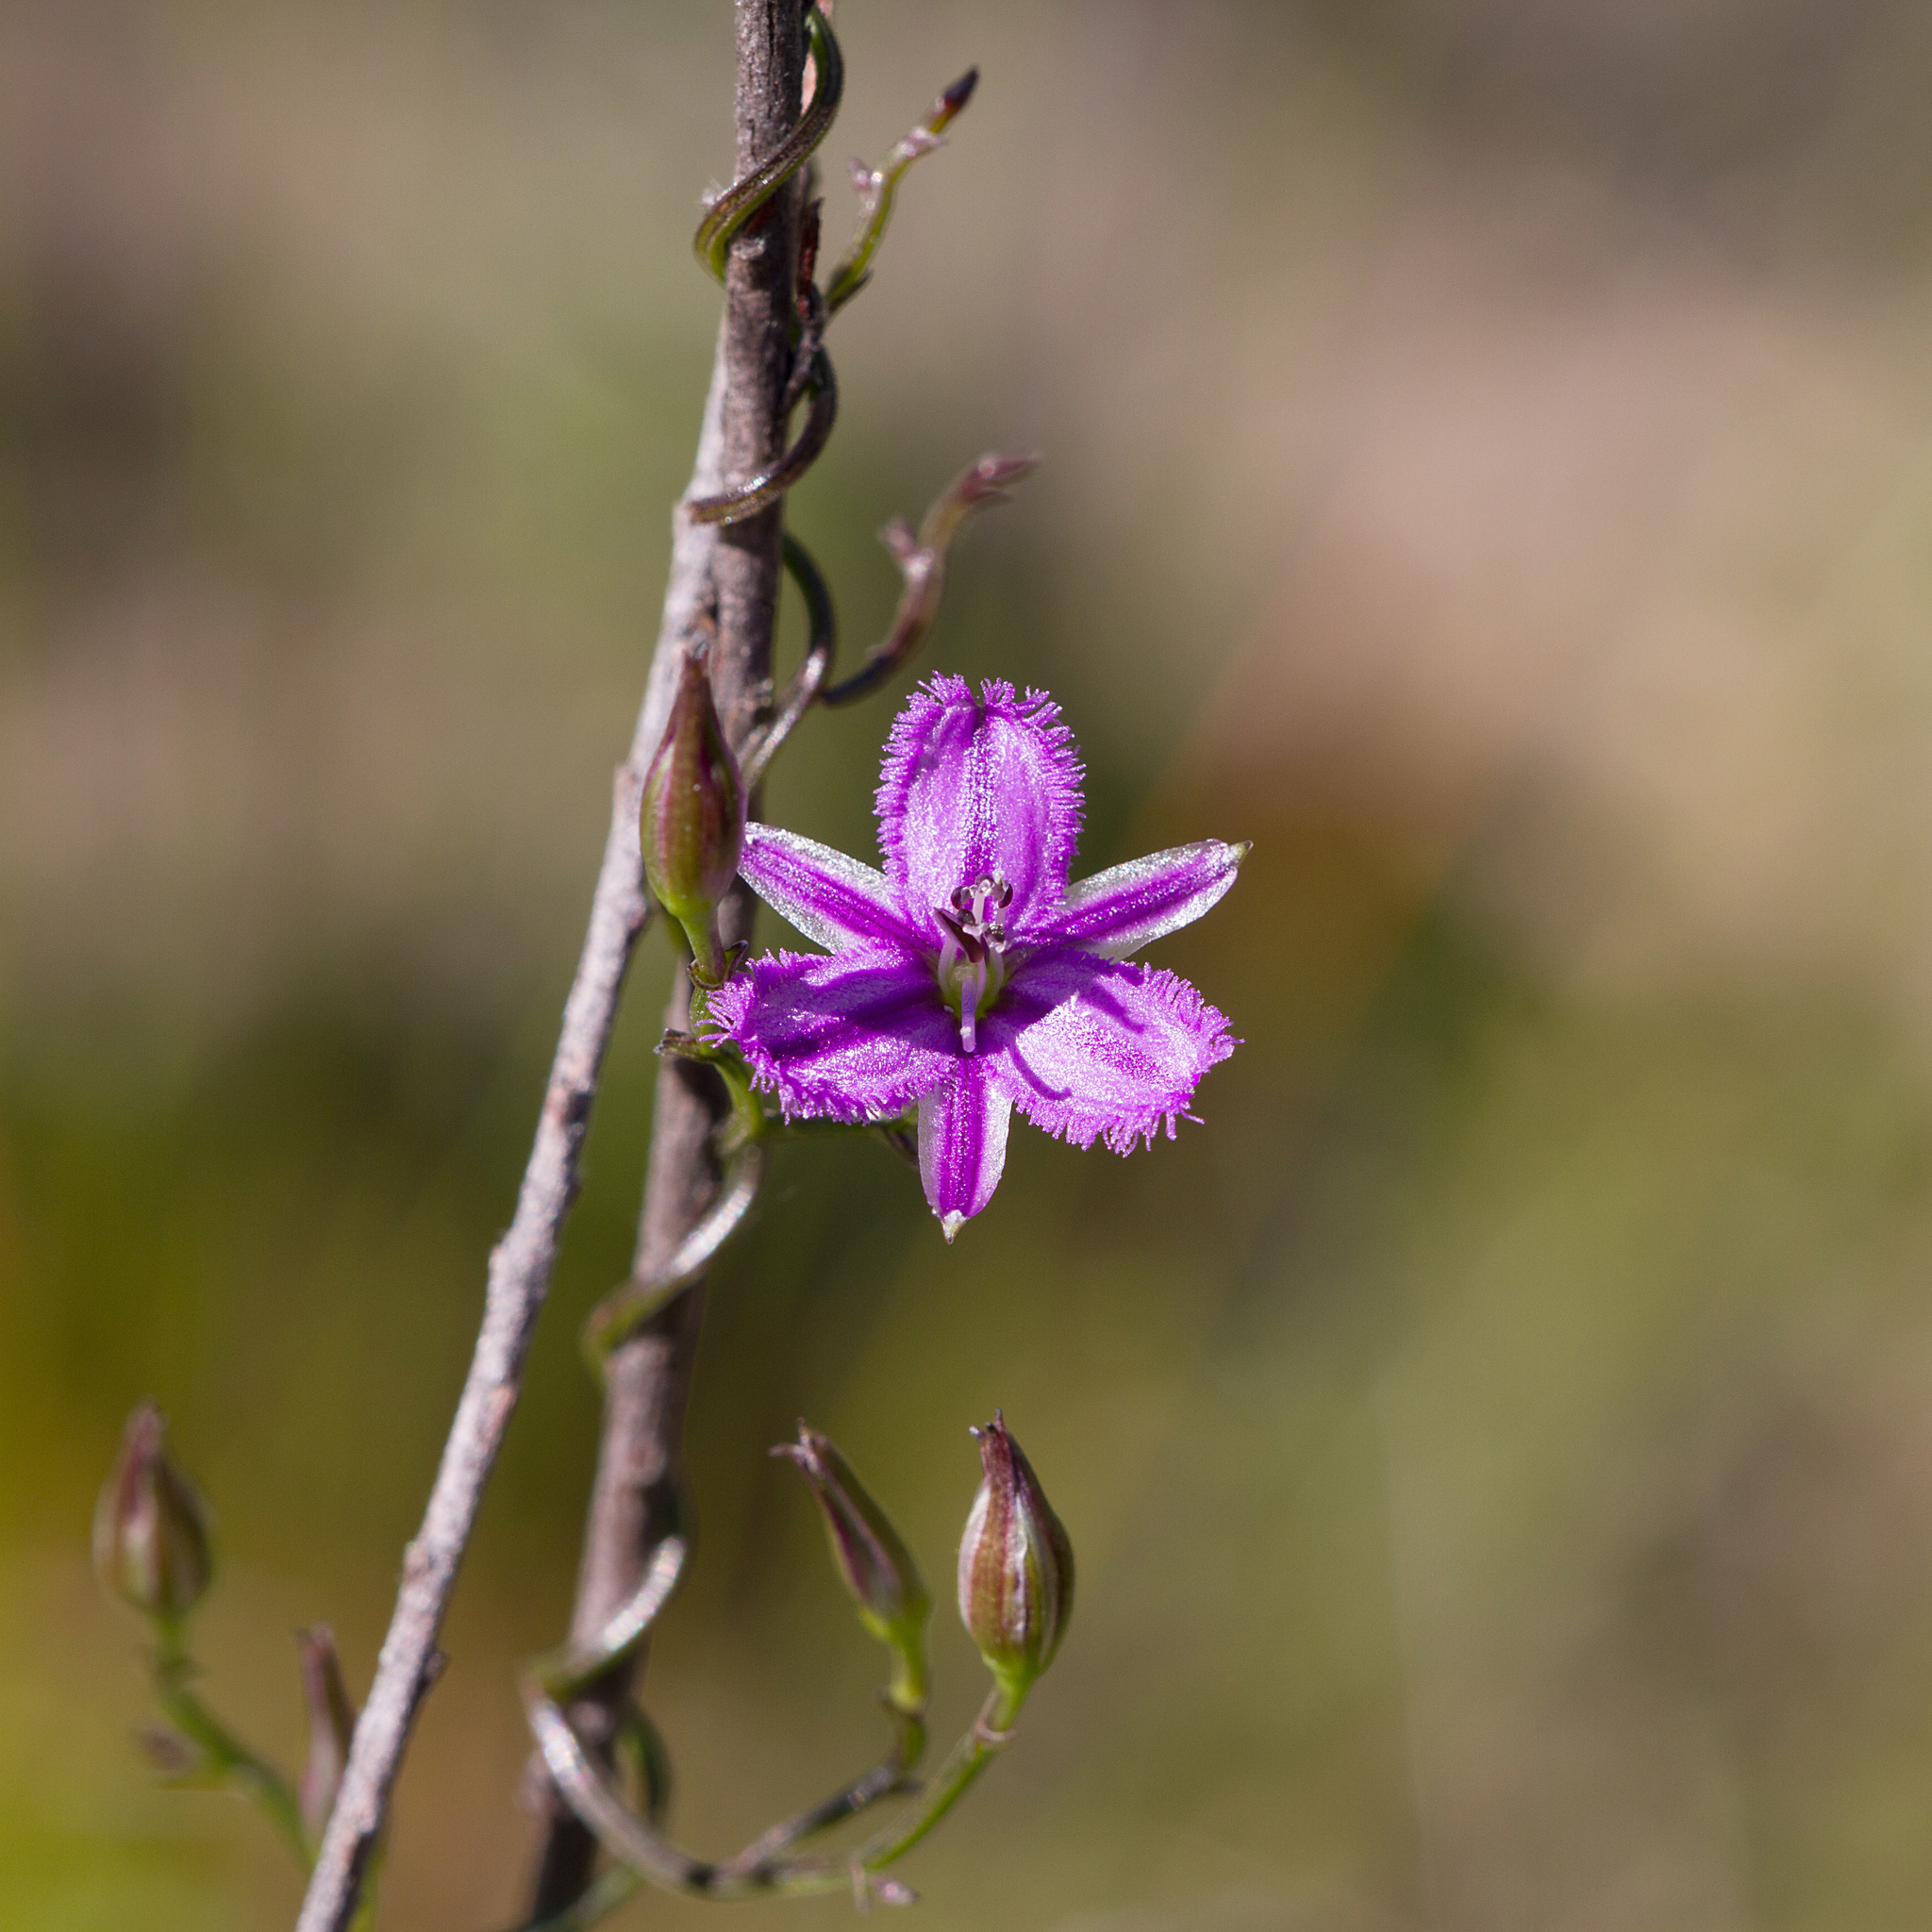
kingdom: Plantae
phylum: Tracheophyta
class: Liliopsida
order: Asparagales
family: Asparagaceae
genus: Thysanotus
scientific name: Thysanotus patersonii
